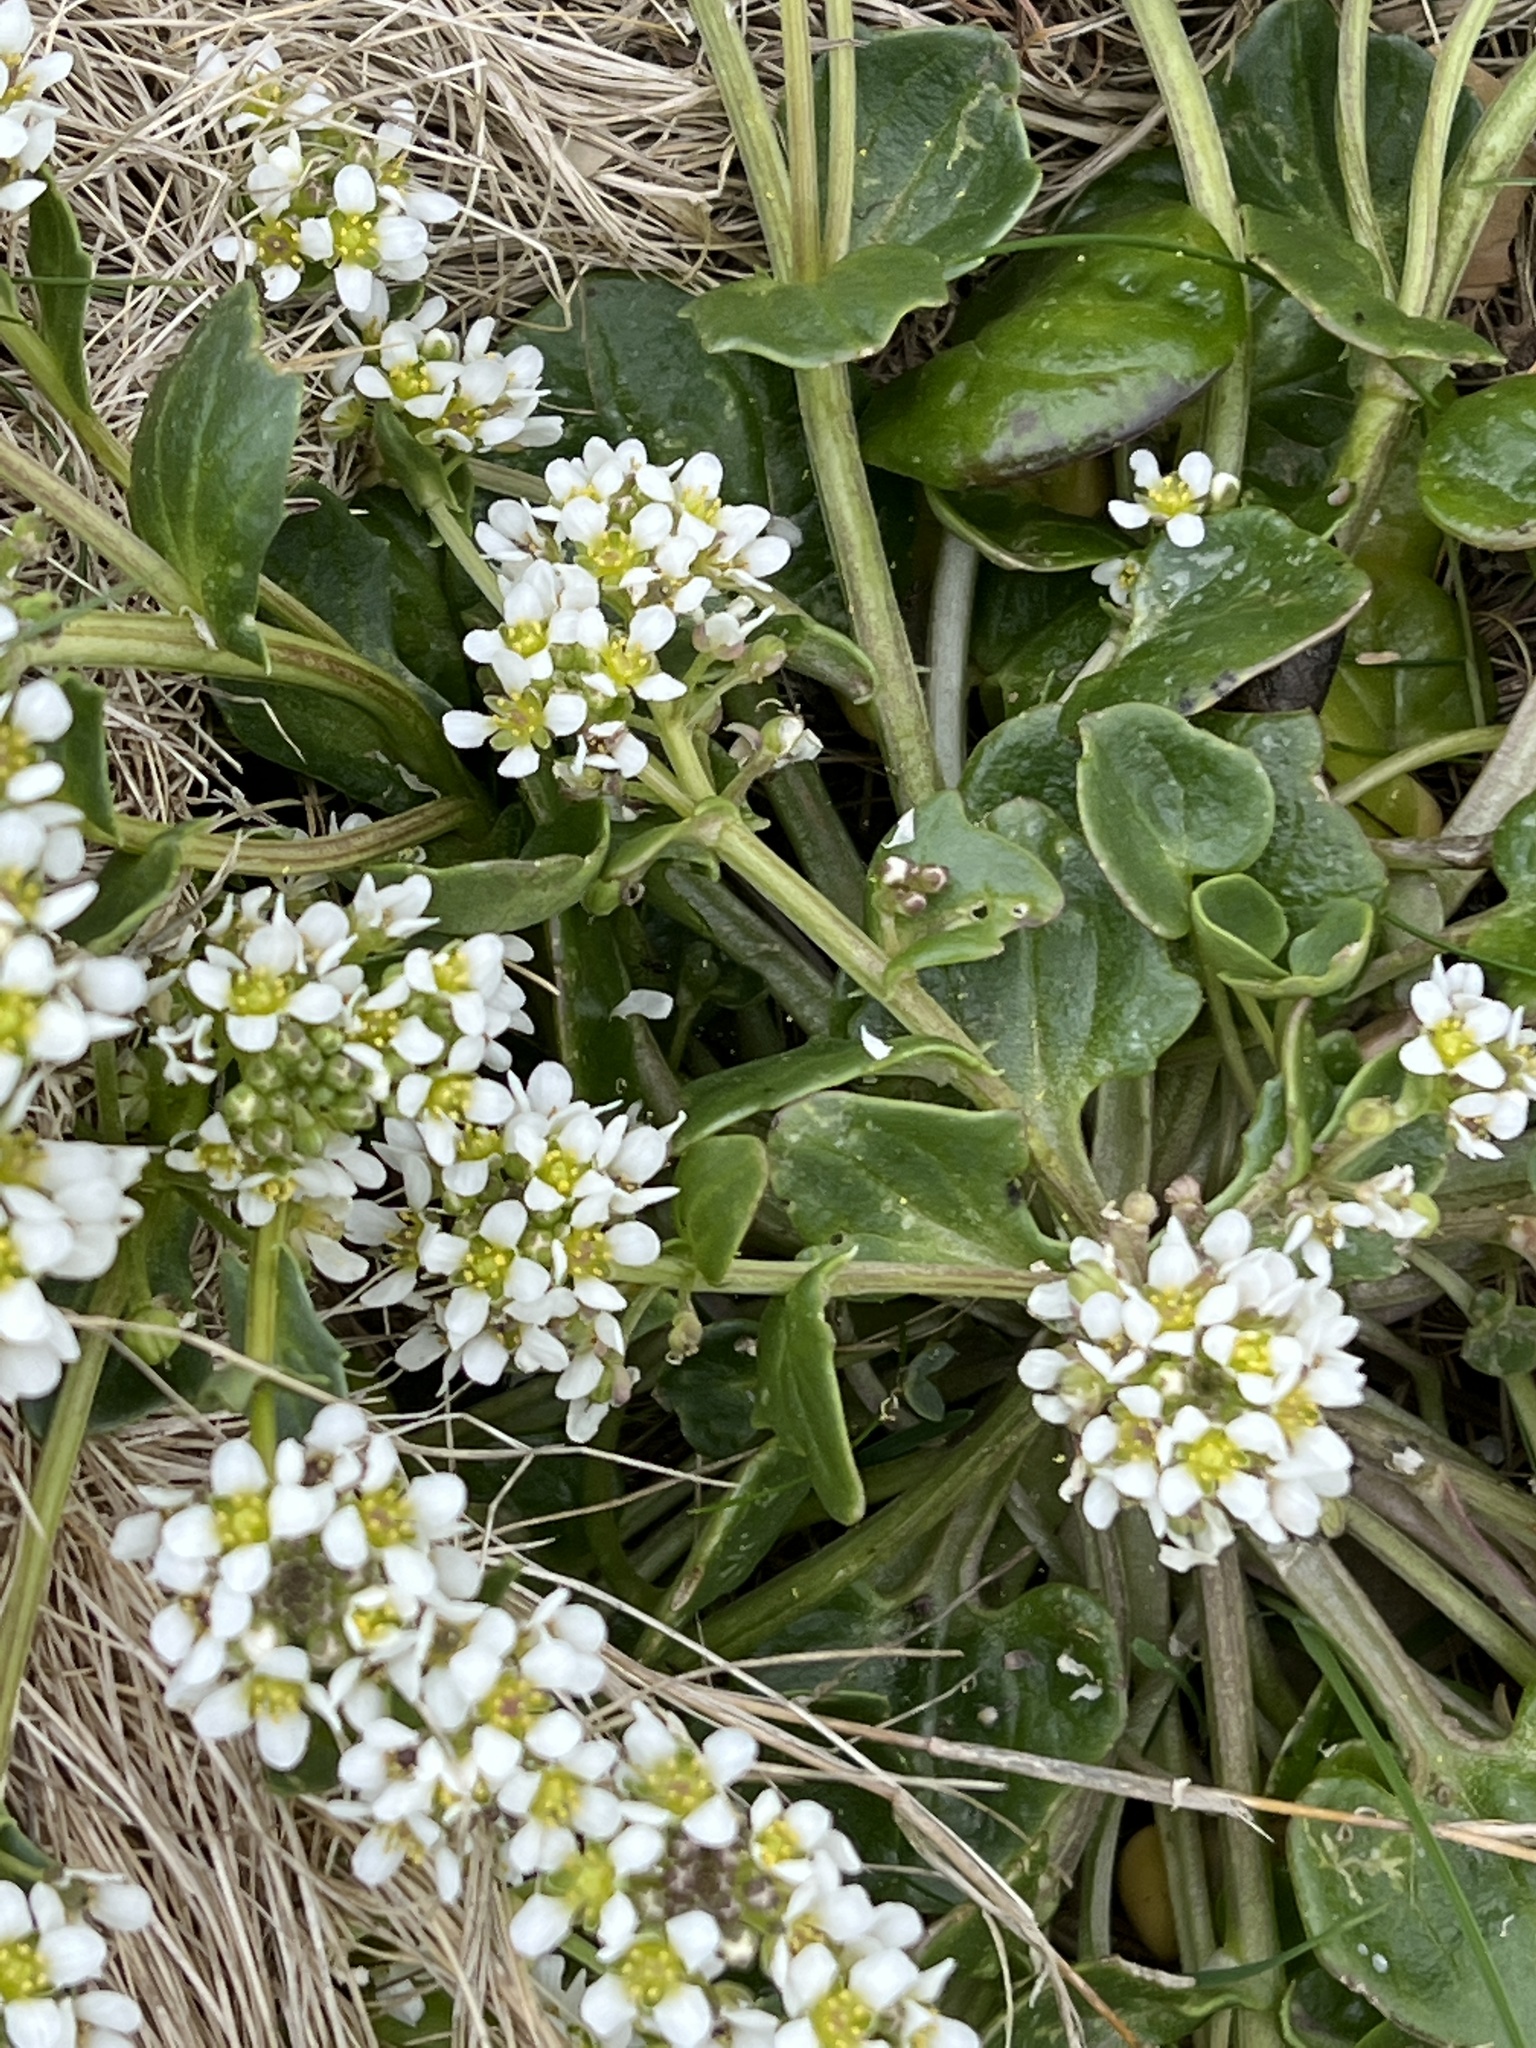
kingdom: Plantae
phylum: Tracheophyta
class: Magnoliopsida
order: Brassicales
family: Brassicaceae
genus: Cochlearia
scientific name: Cochlearia officinalis
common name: Scurvy-grass
